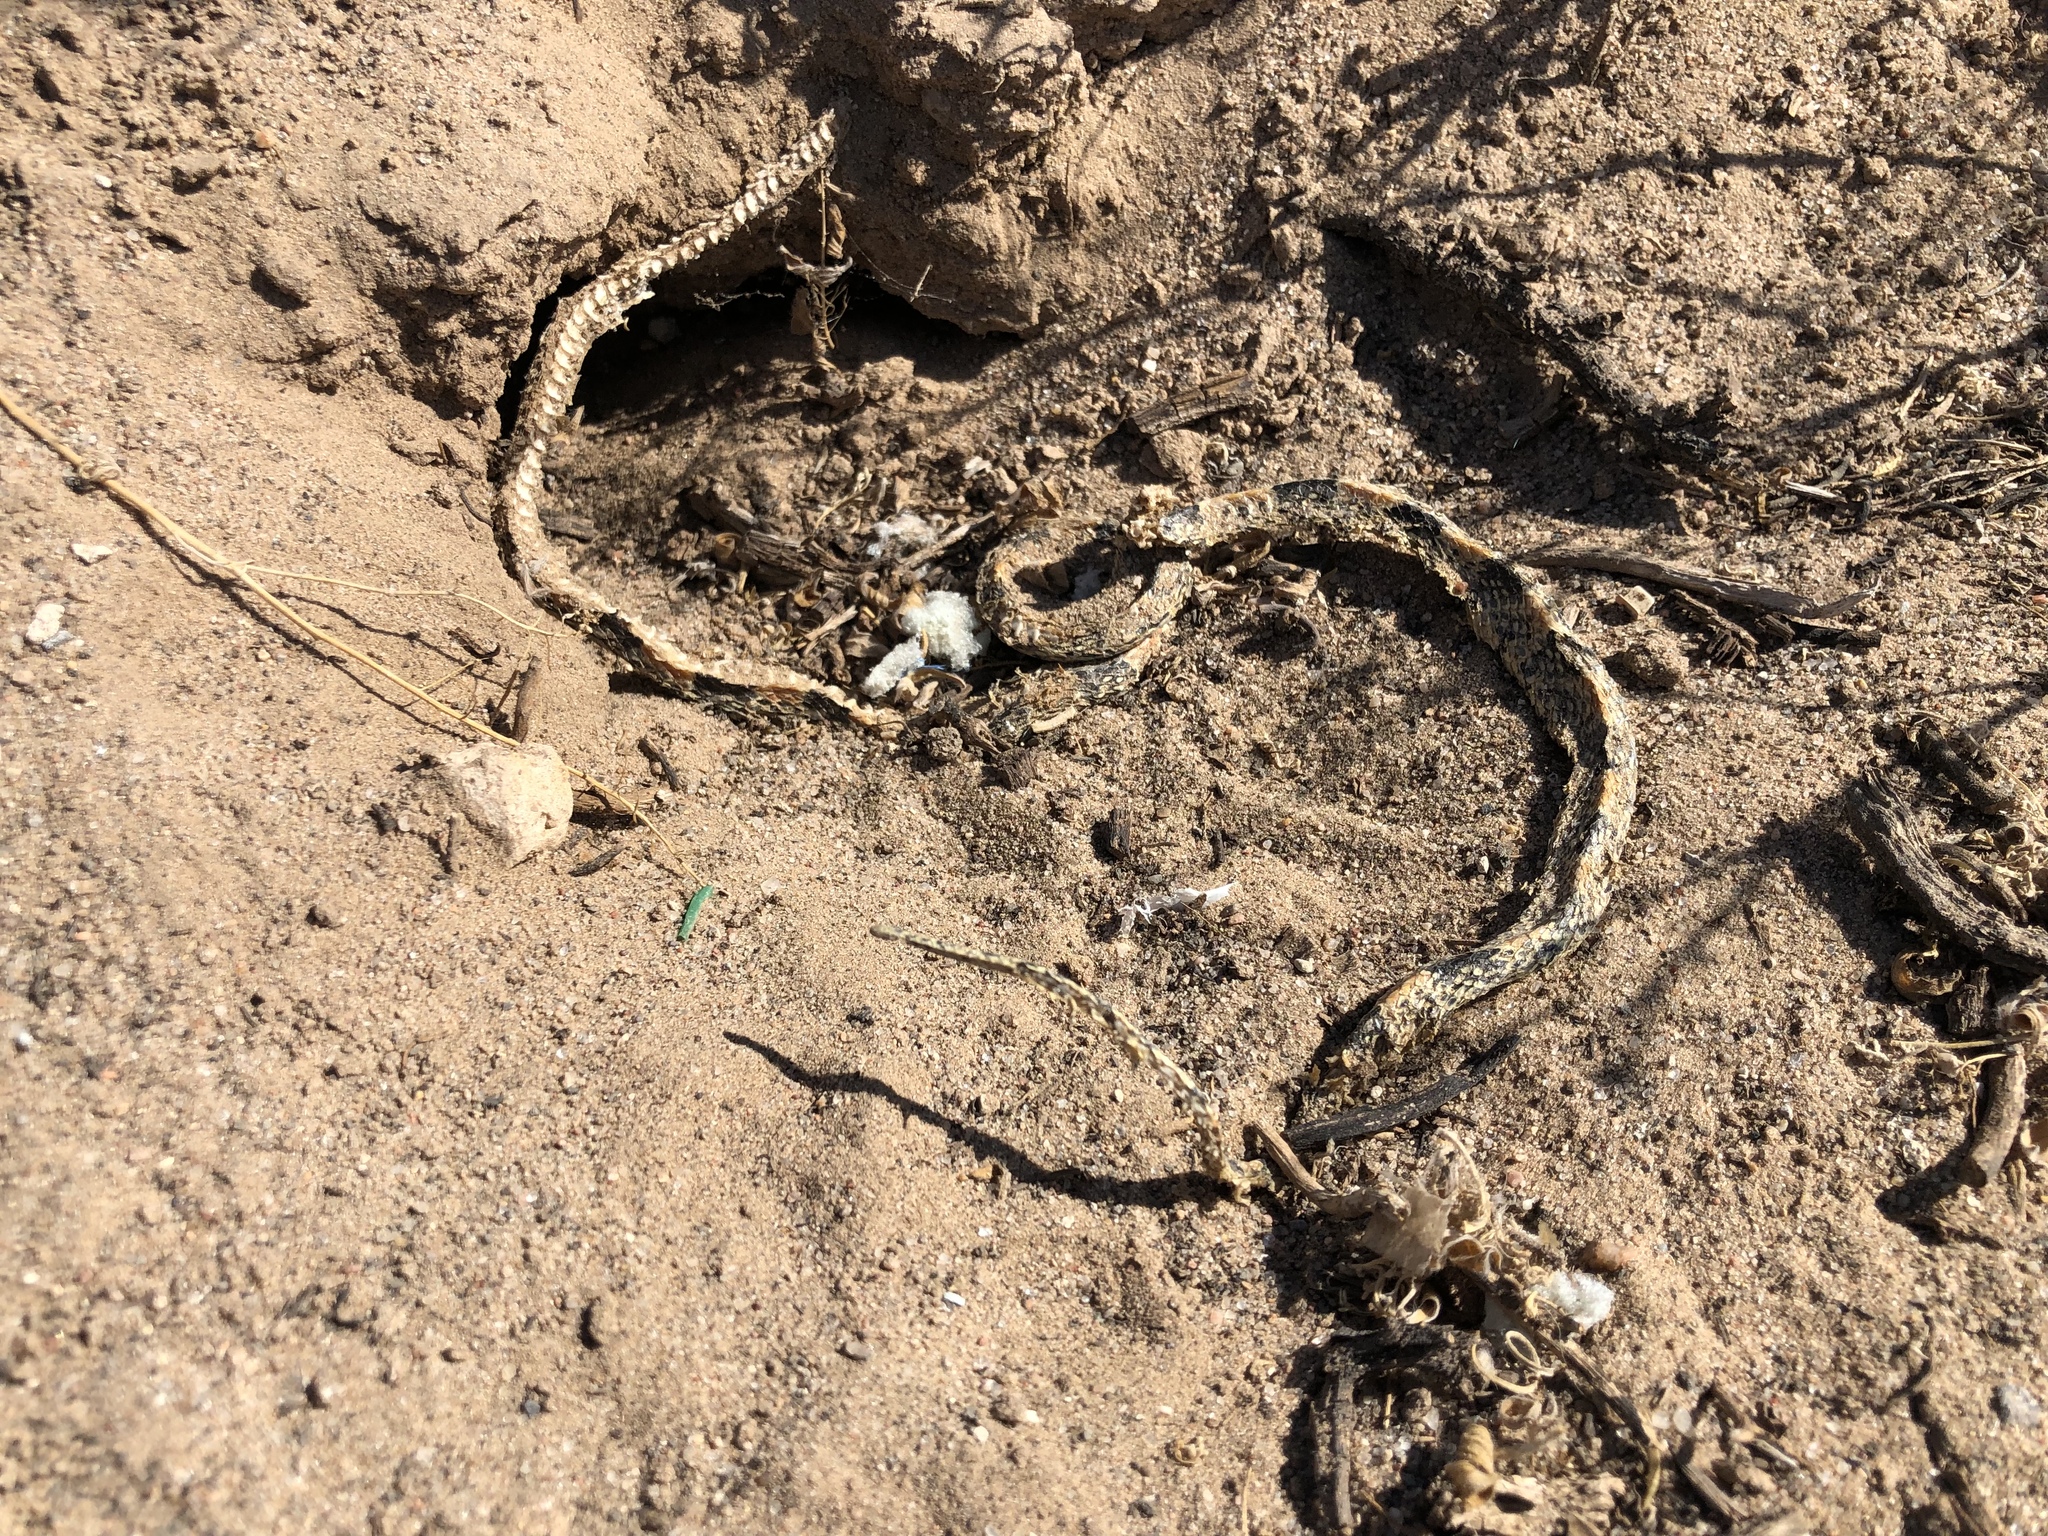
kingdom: Animalia
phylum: Chordata
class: Squamata
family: Colubridae
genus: Rhinocheilus
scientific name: Rhinocheilus lecontei
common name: Longnose snake
